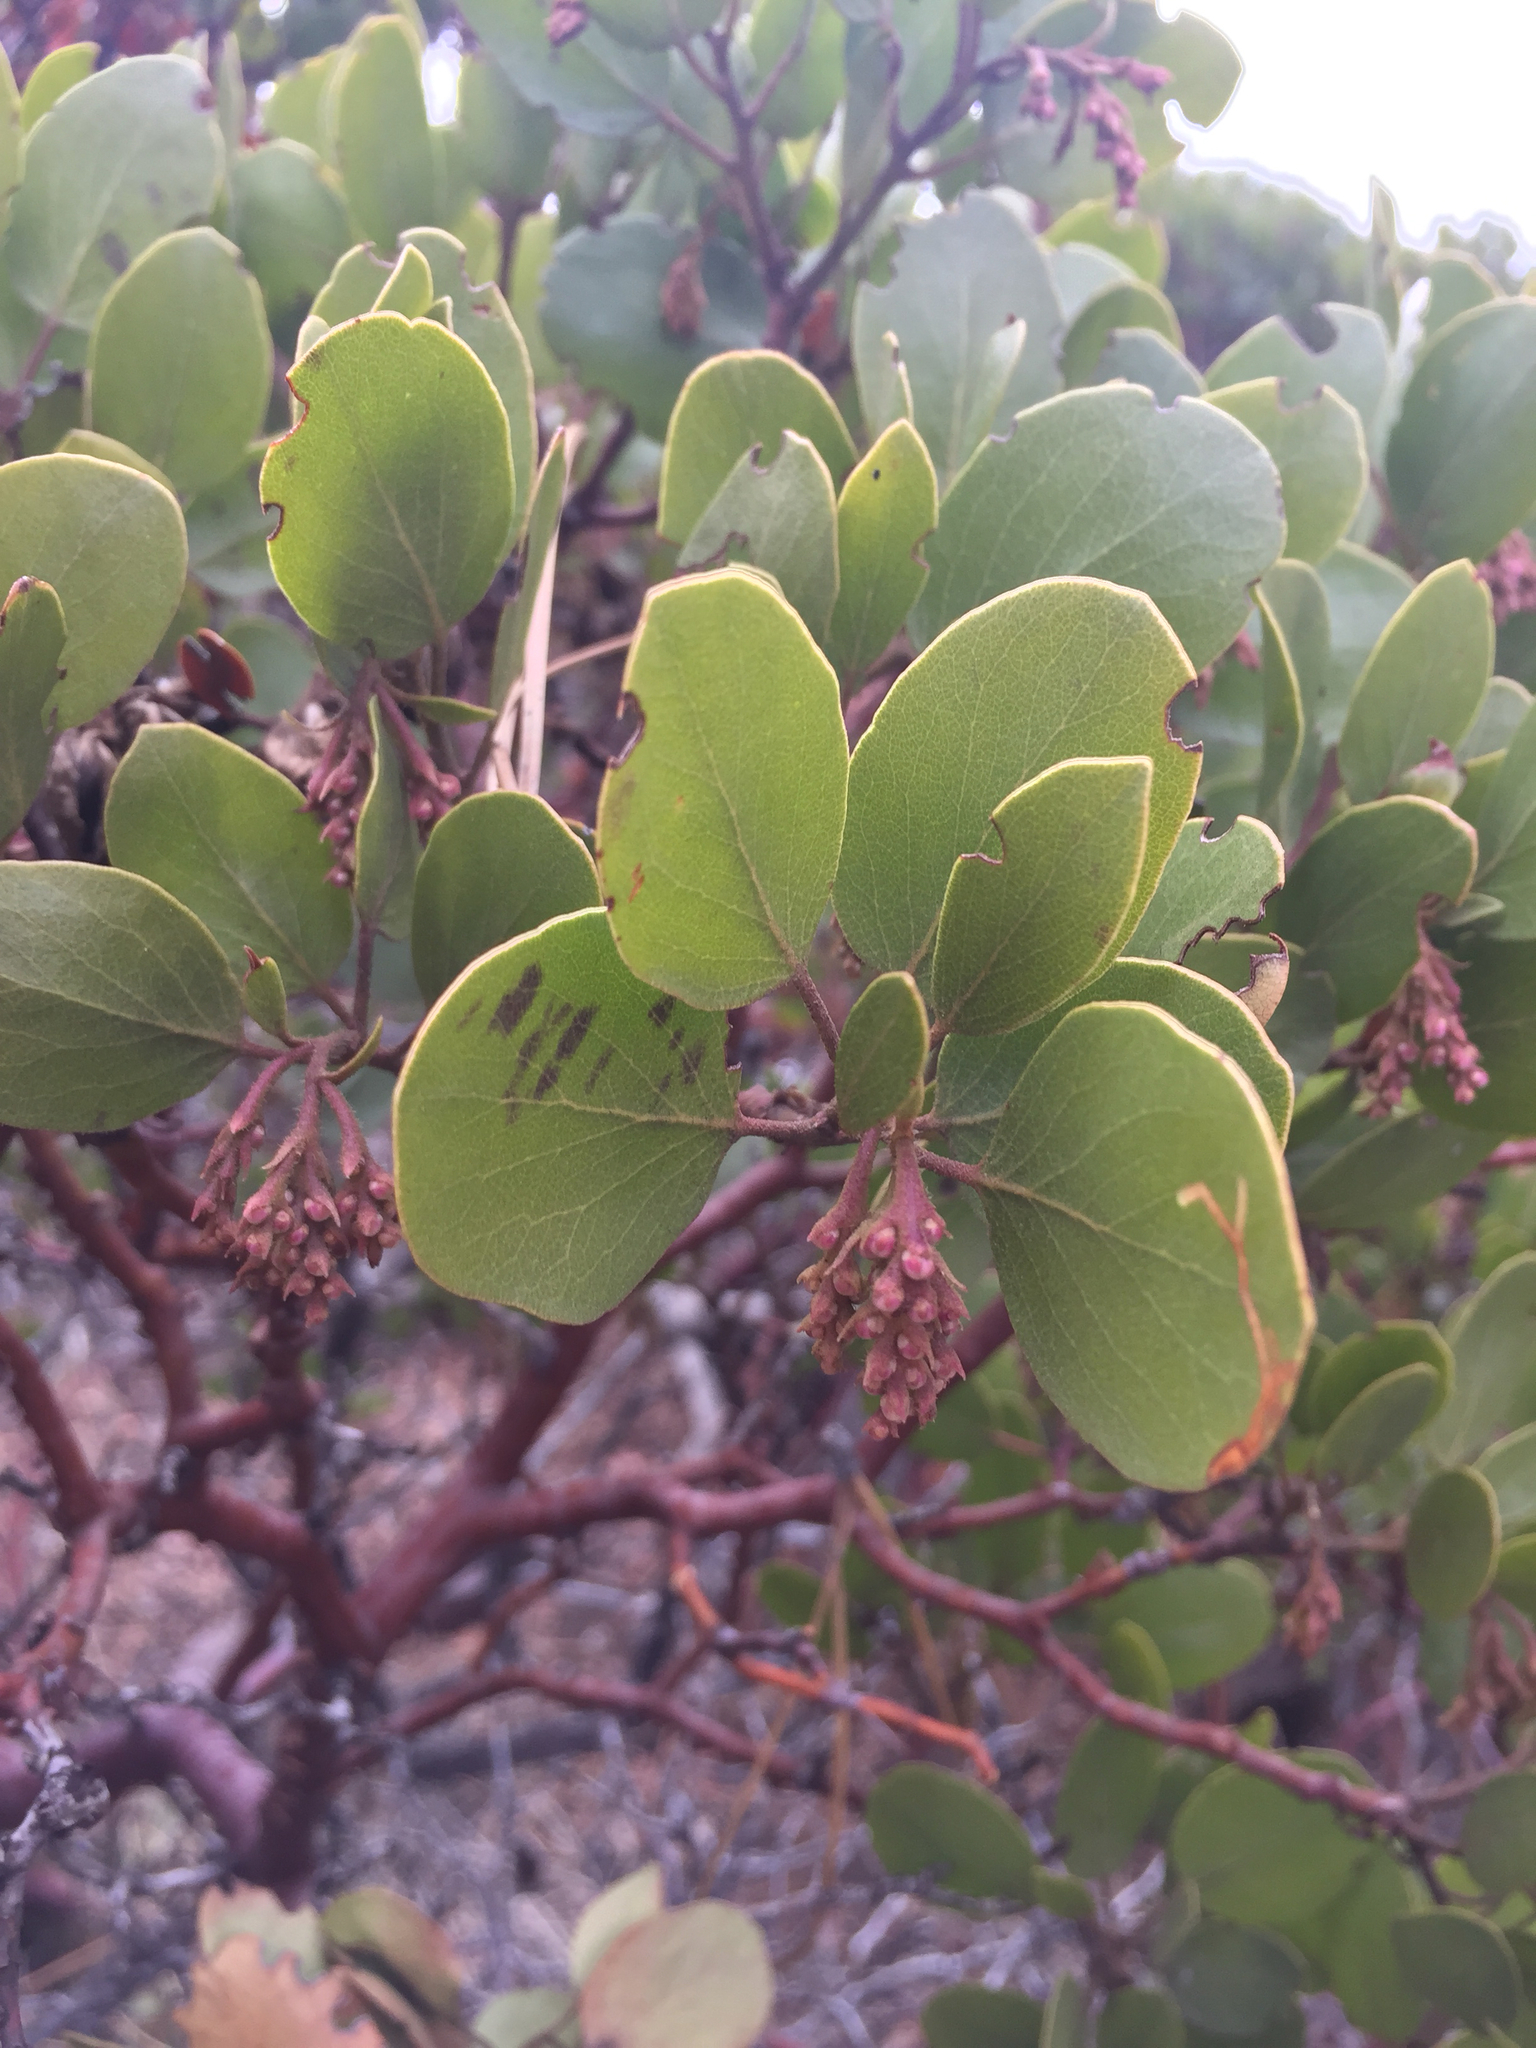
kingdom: Plantae
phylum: Tracheophyta
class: Magnoliopsida
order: Ericales
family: Ericaceae
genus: Arctostaphylos
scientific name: Arctostaphylos patula
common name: Green-leaf manzanita
